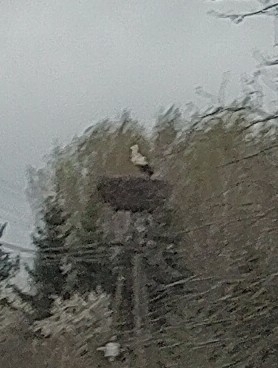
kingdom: Animalia
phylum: Chordata
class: Aves
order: Ciconiiformes
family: Ciconiidae
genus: Ciconia
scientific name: Ciconia ciconia
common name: White stork
